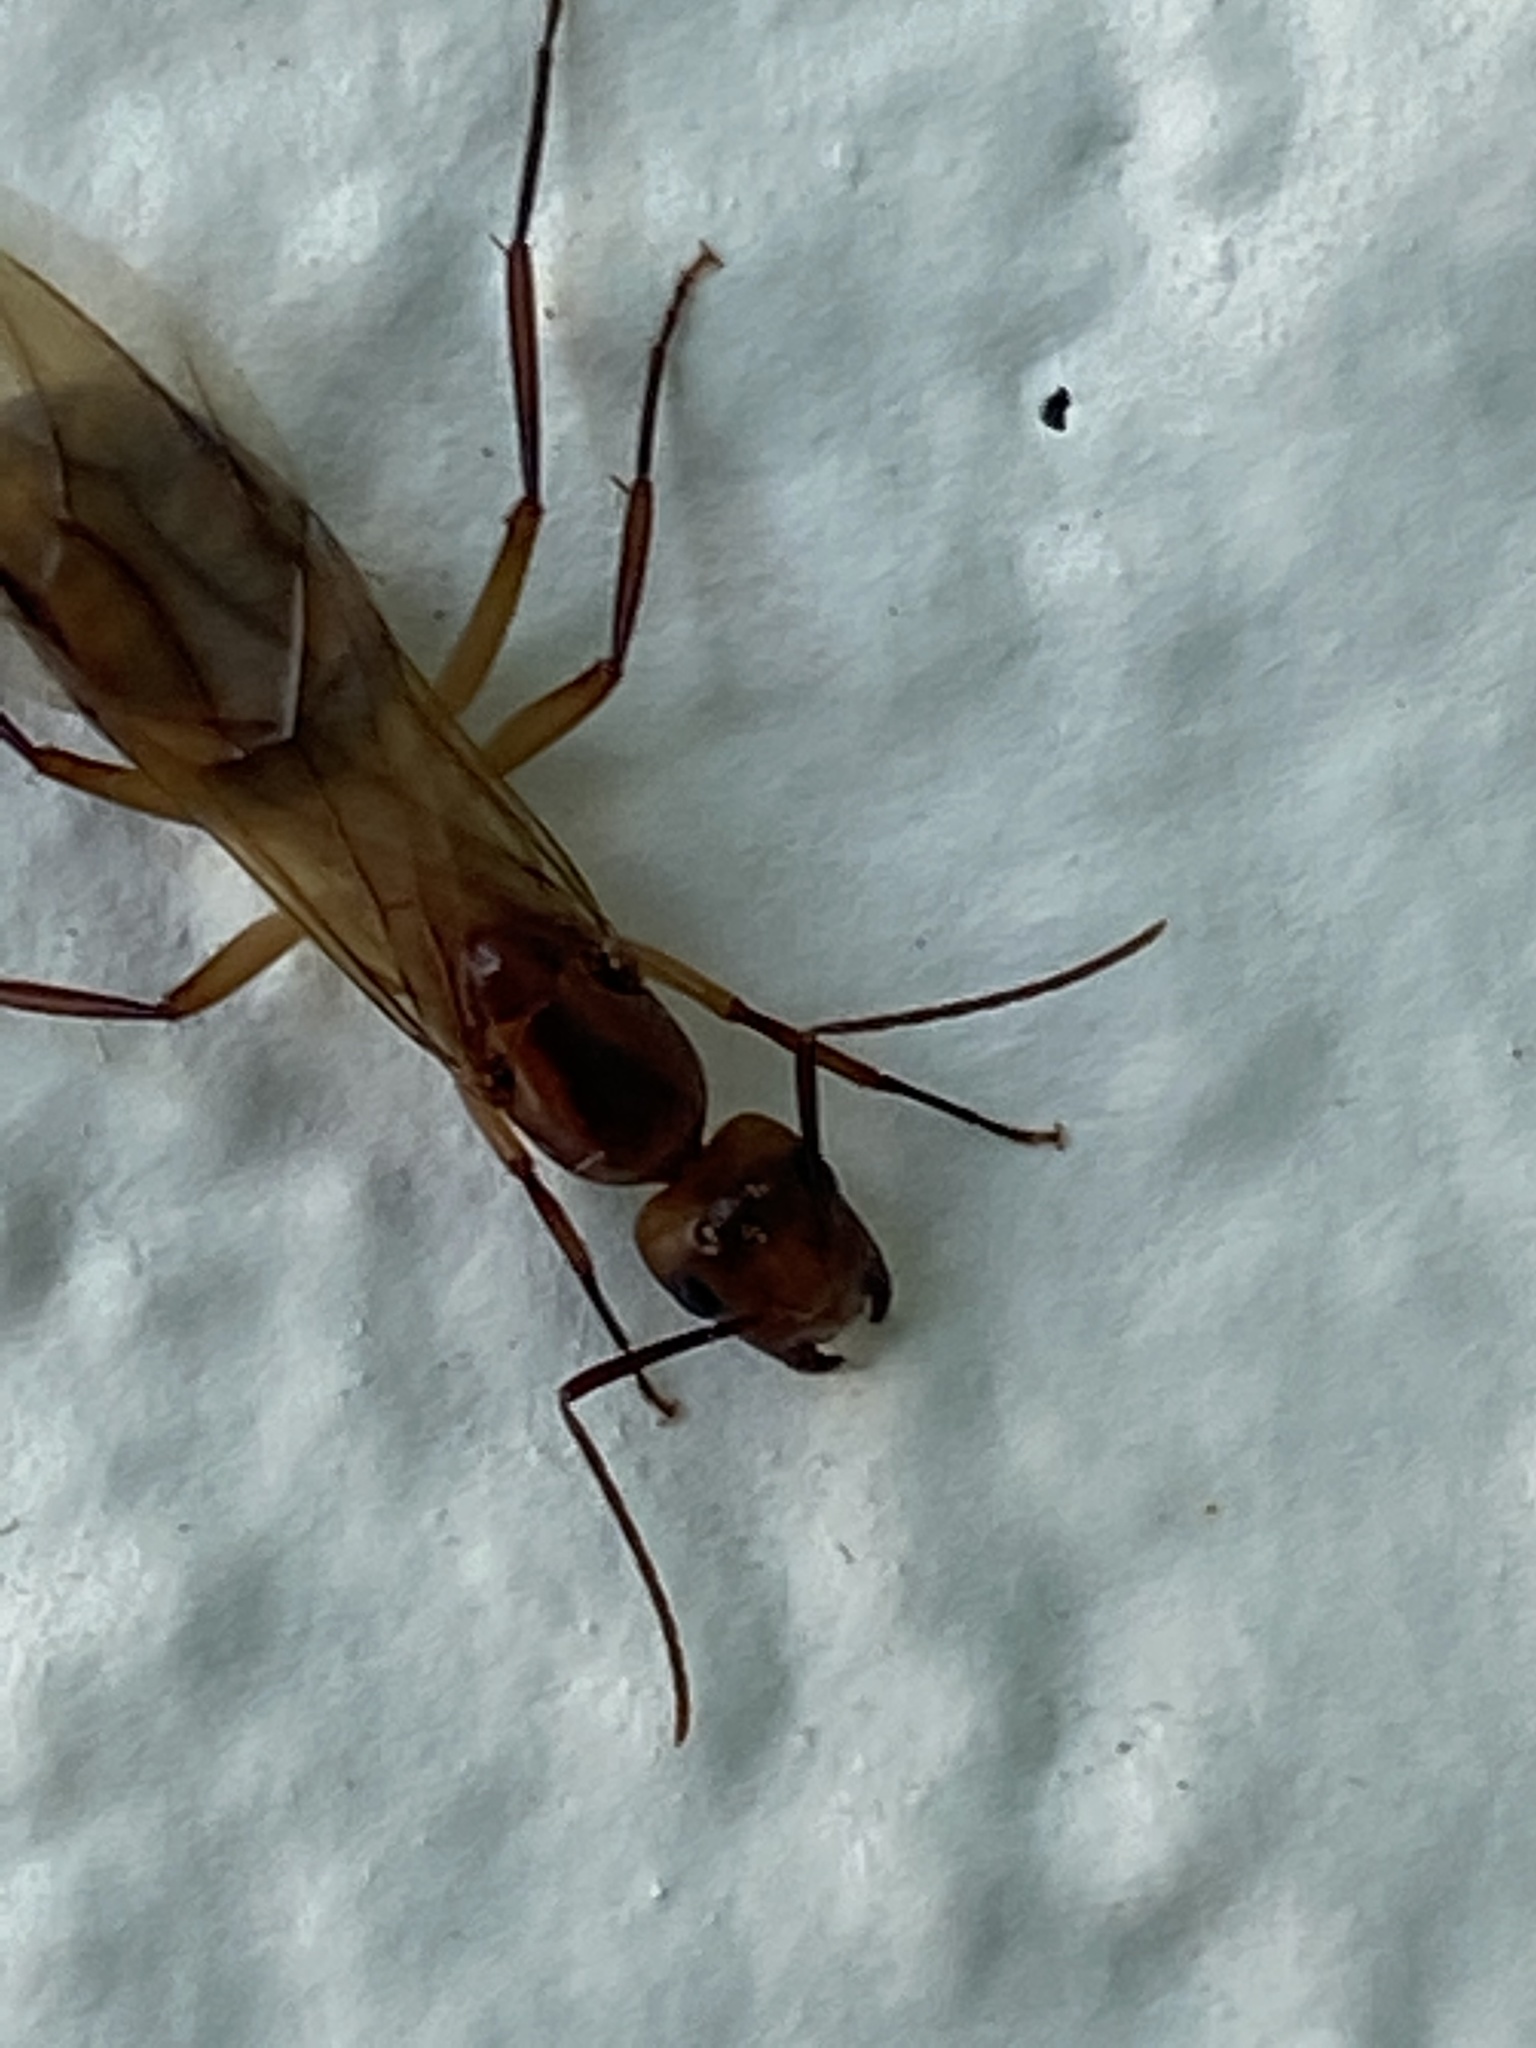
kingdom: Animalia
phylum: Arthropoda
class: Insecta
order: Hymenoptera
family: Formicidae
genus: Camponotus
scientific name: Camponotus
